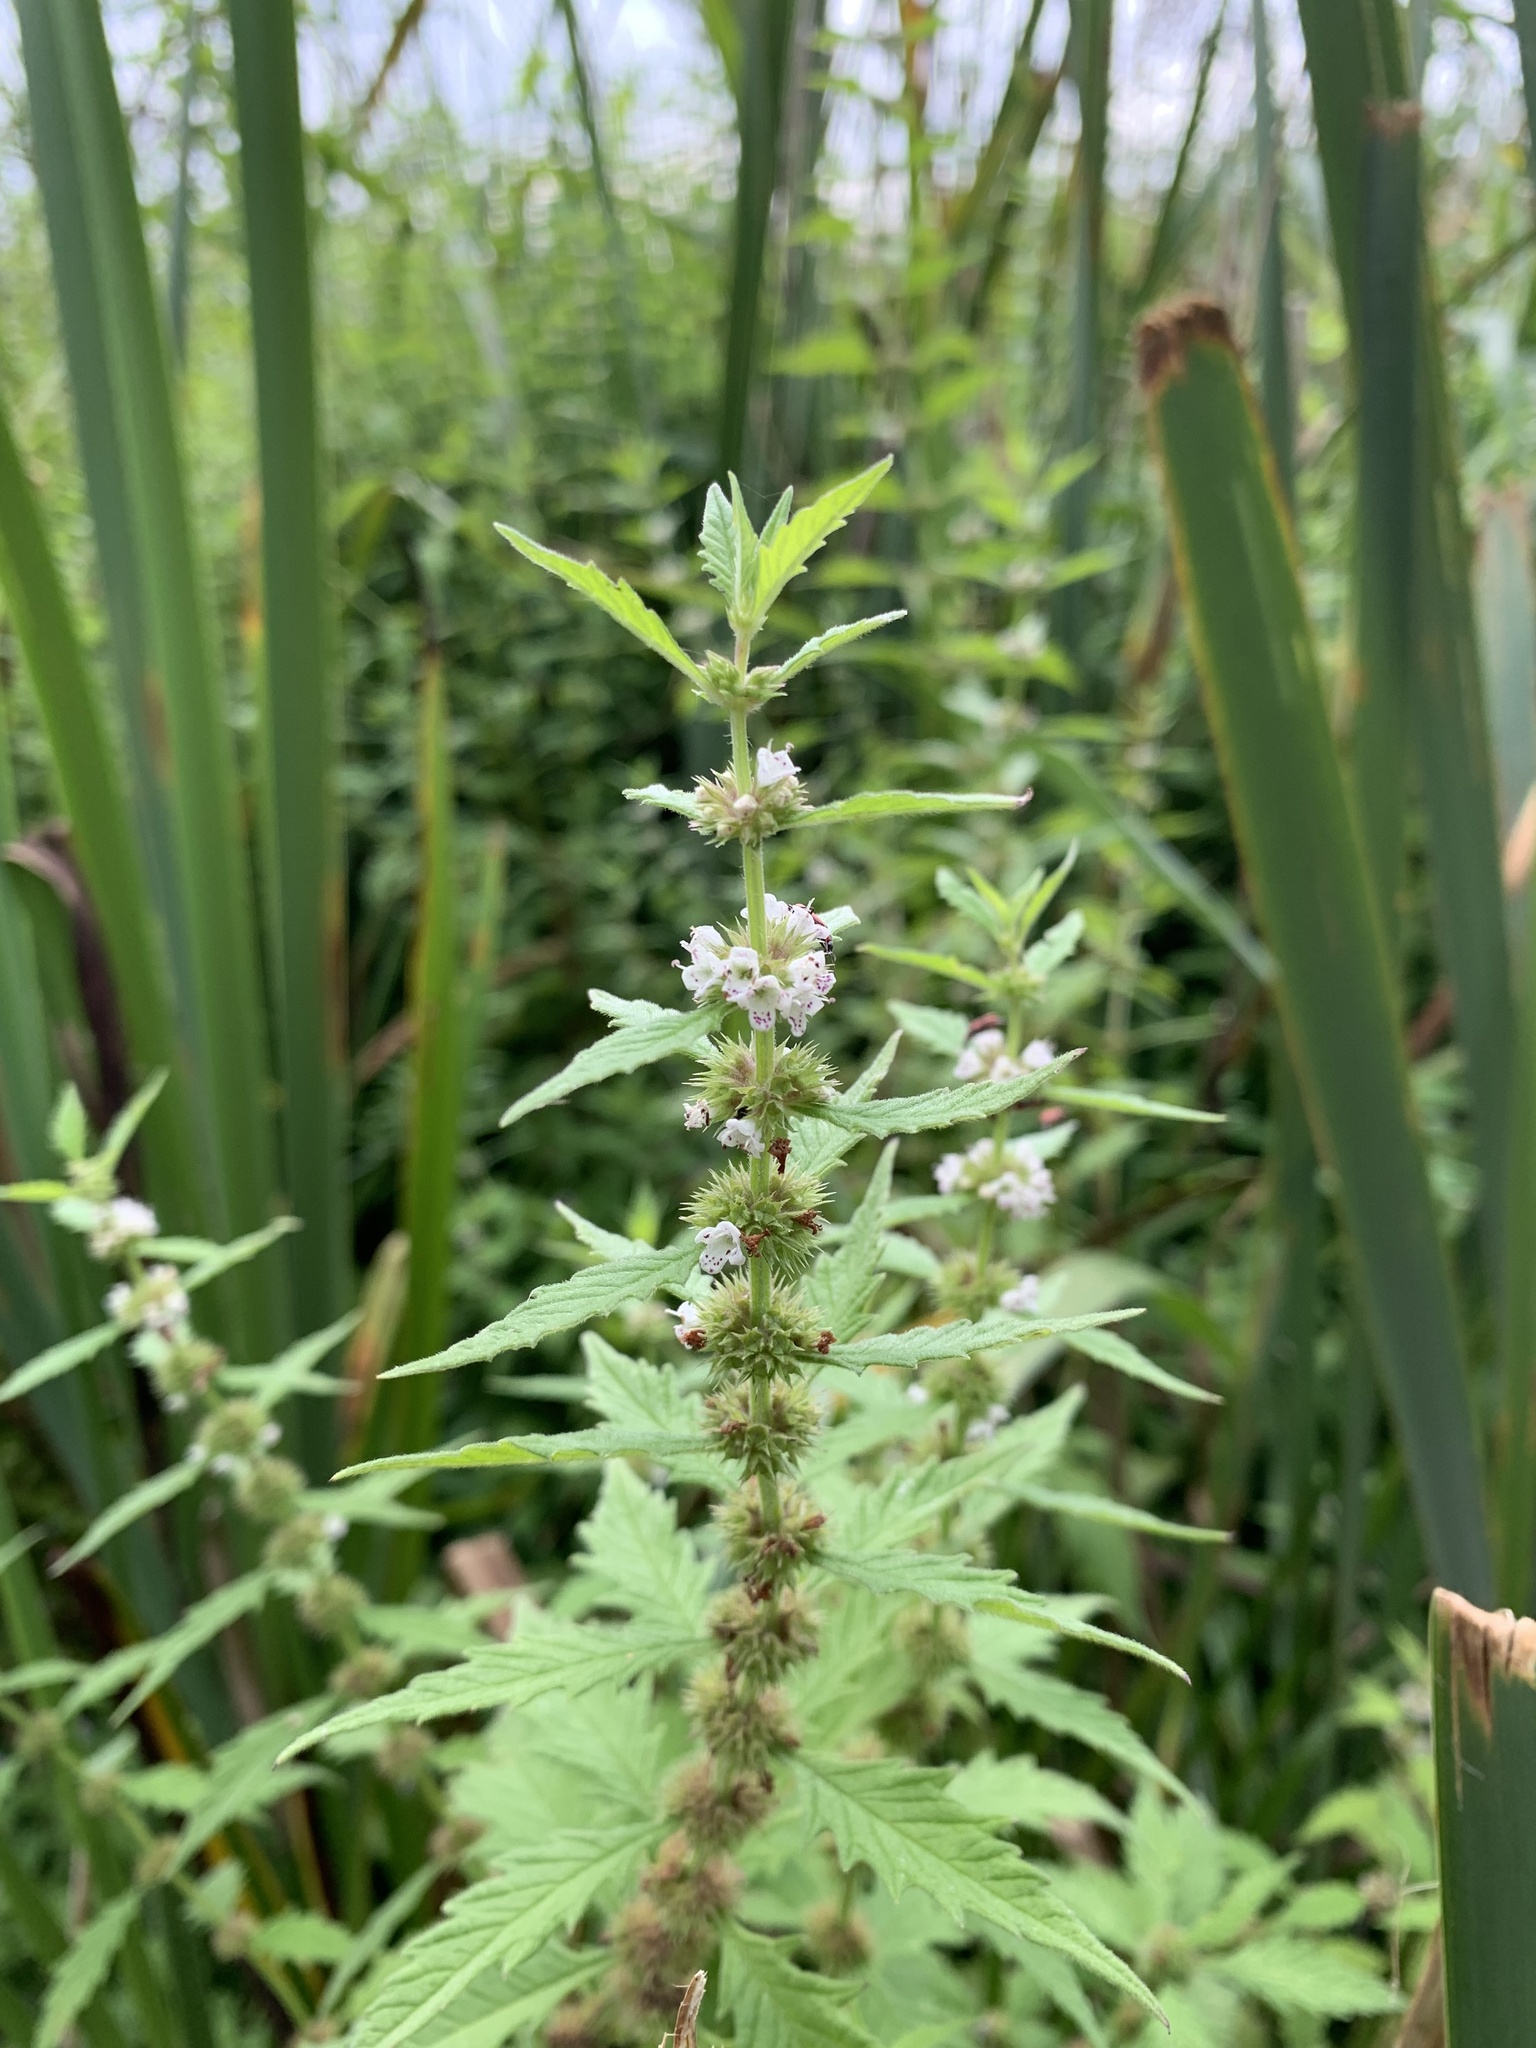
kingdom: Plantae
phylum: Tracheophyta
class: Magnoliopsida
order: Lamiales
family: Lamiaceae
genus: Lycopus
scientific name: Lycopus europaeus
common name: European bugleweed
